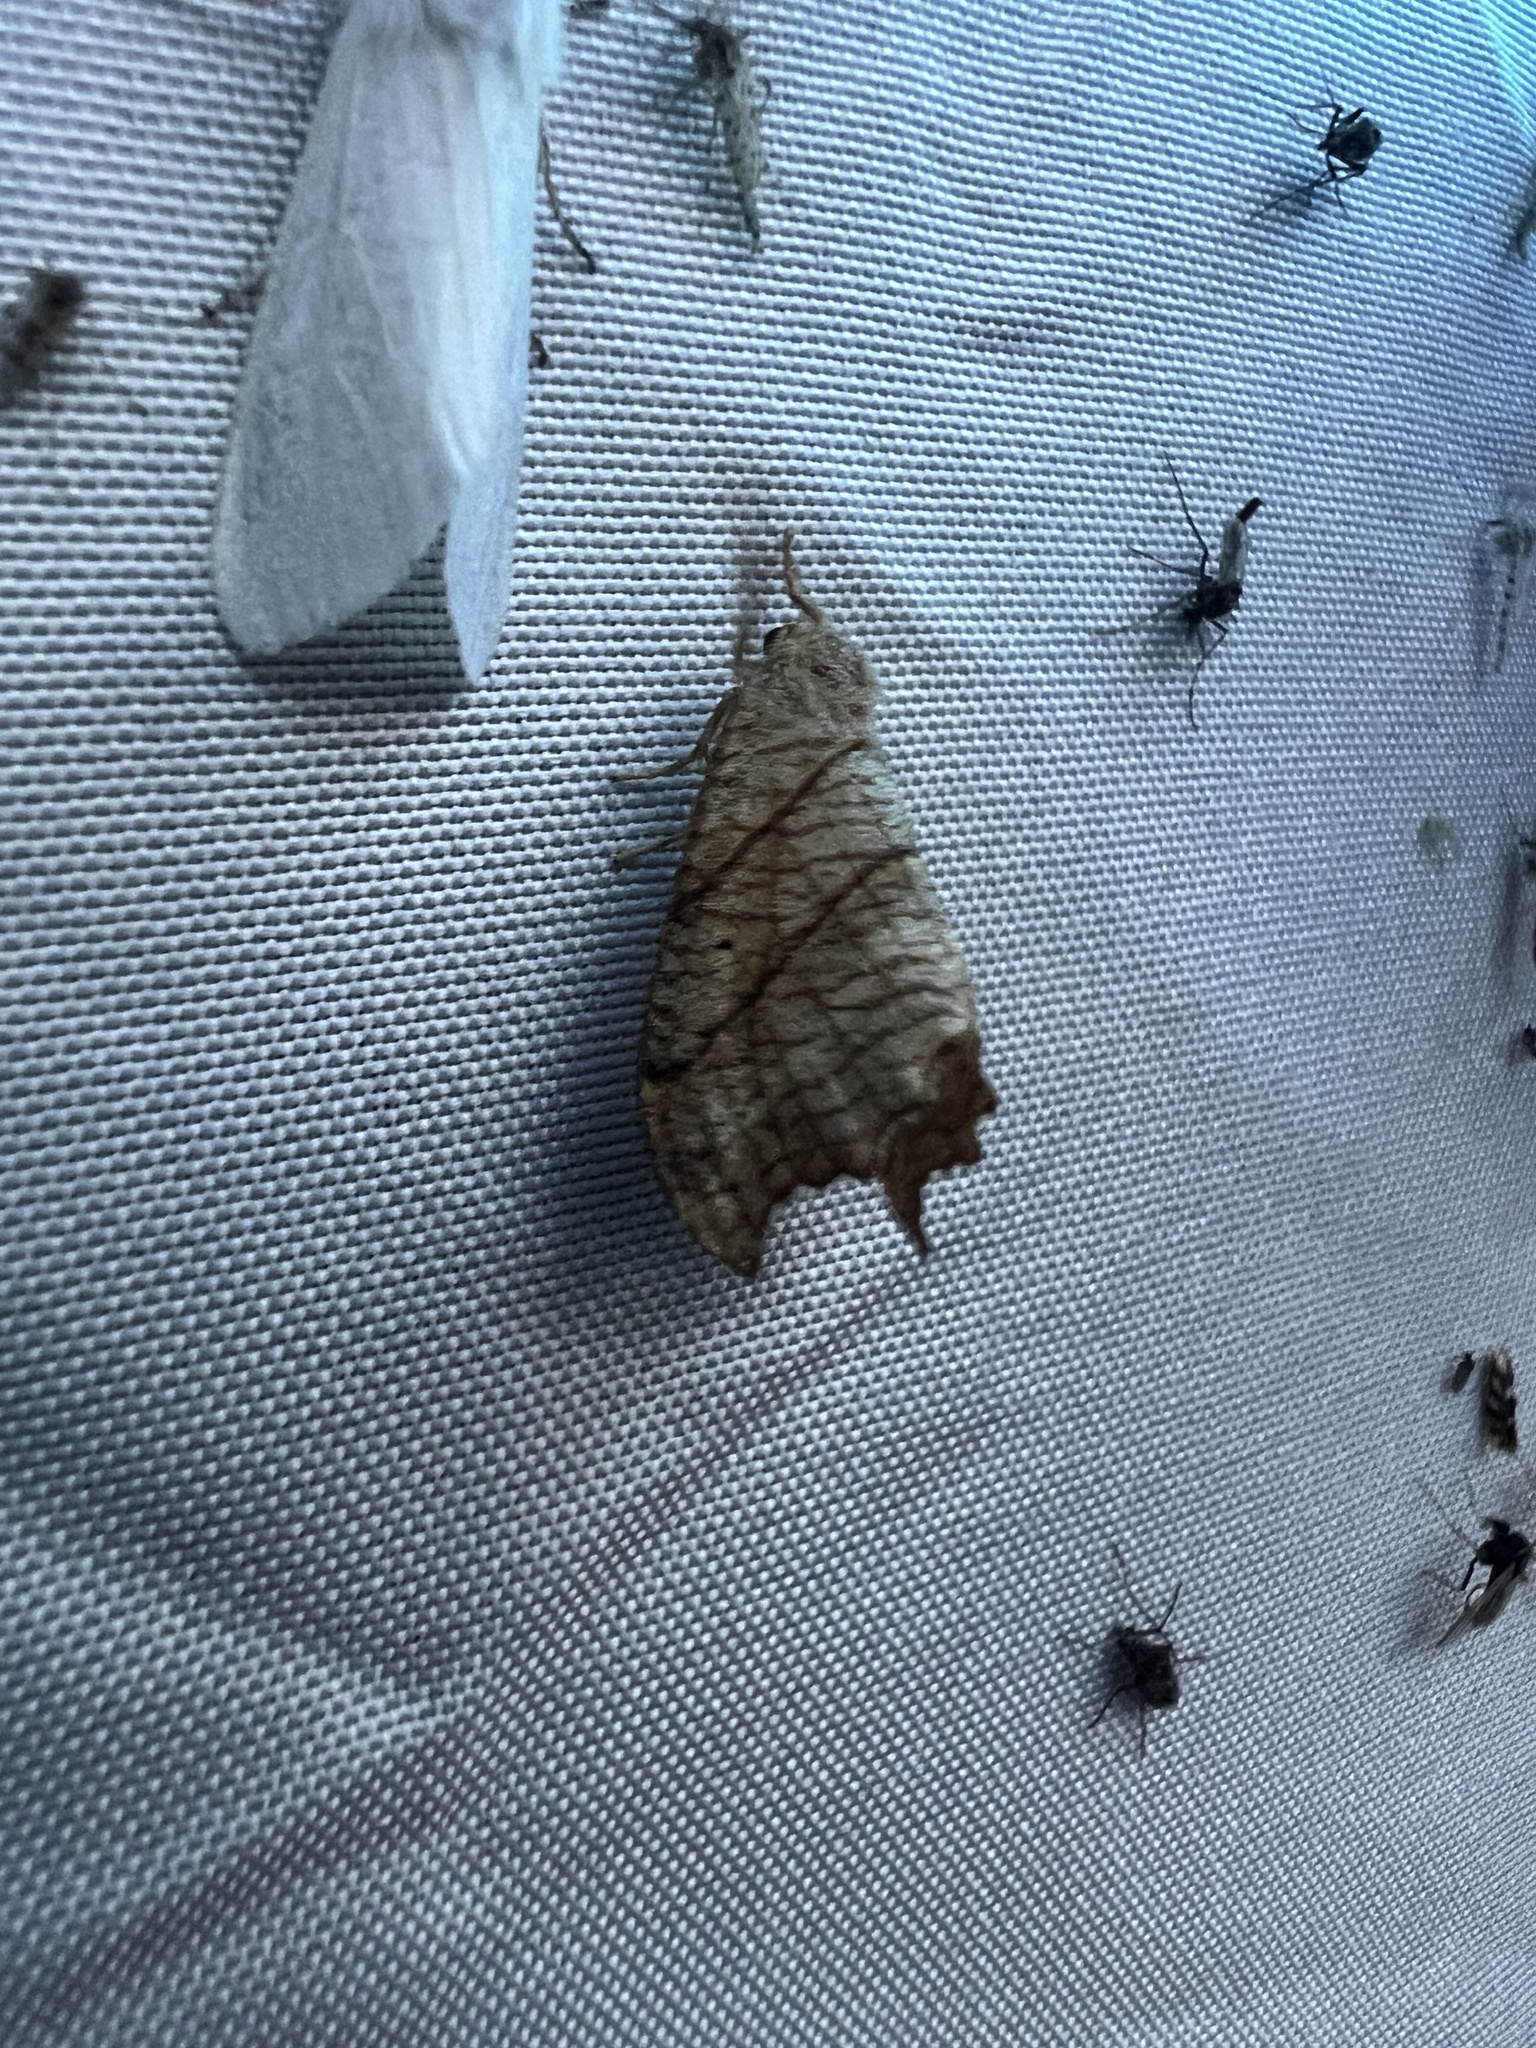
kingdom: Animalia
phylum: Arthropoda
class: Insecta
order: Lepidoptera
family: Drepanidae
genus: Falcaria
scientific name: Falcaria bilineata
